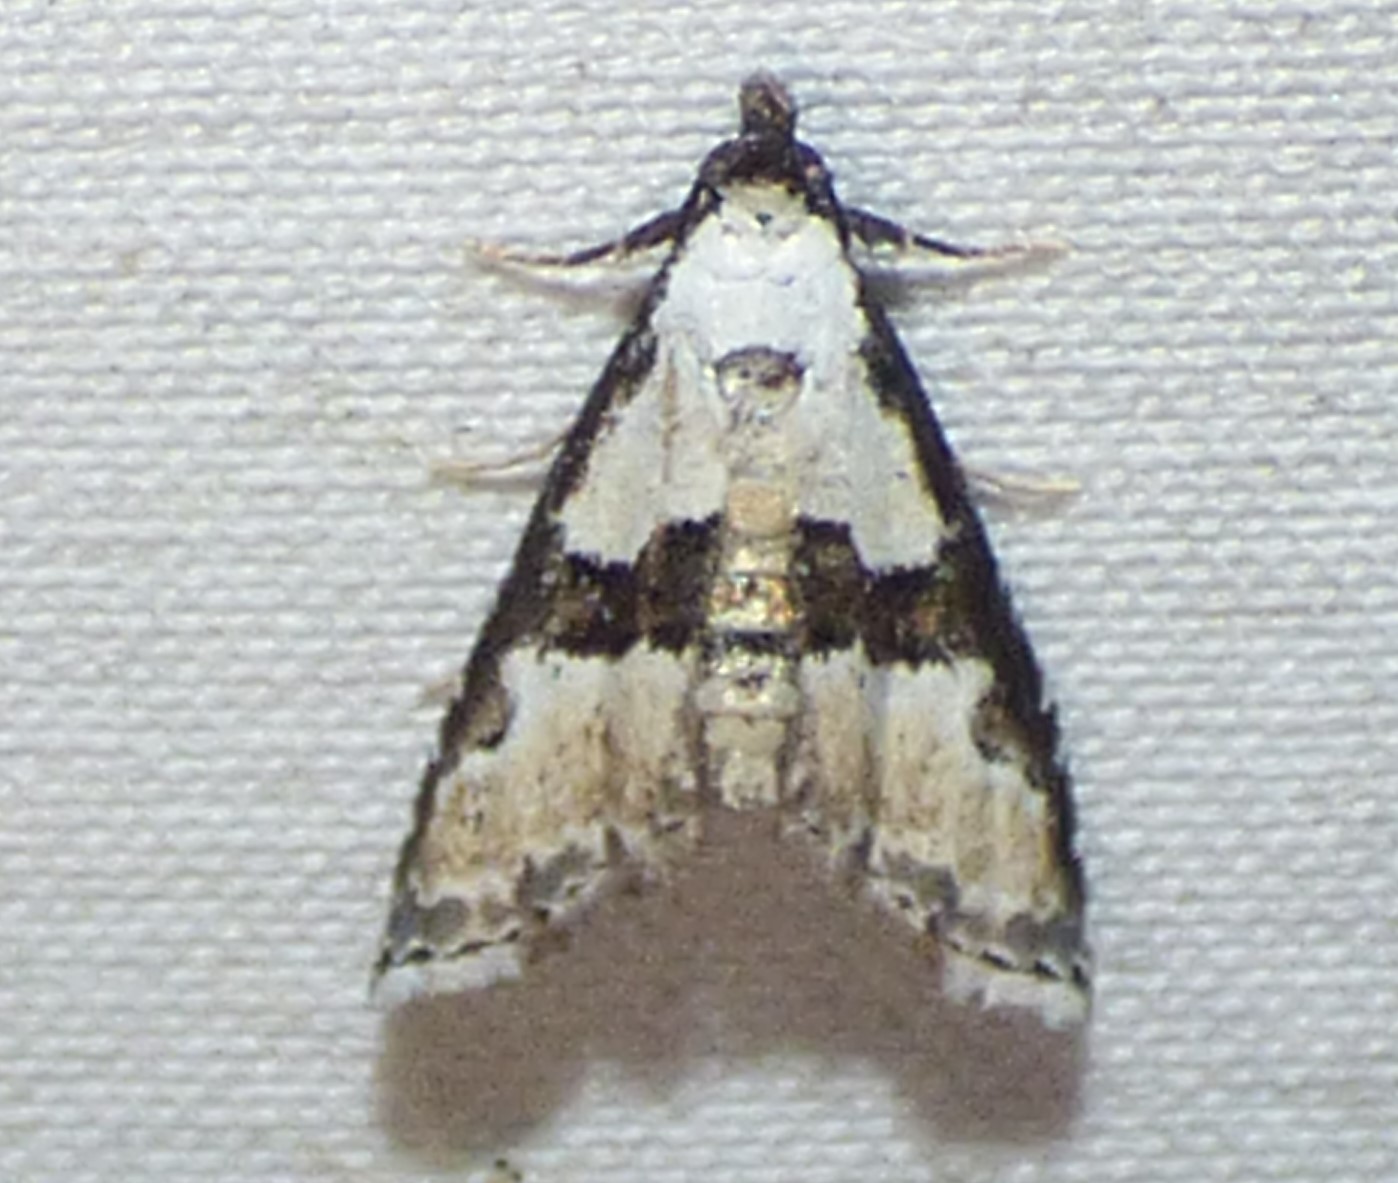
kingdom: Animalia
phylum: Arthropoda
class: Insecta
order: Lepidoptera
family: Noctuidae
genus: Nigetia
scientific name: Nigetia formosalis
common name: Thin-winged owlet
